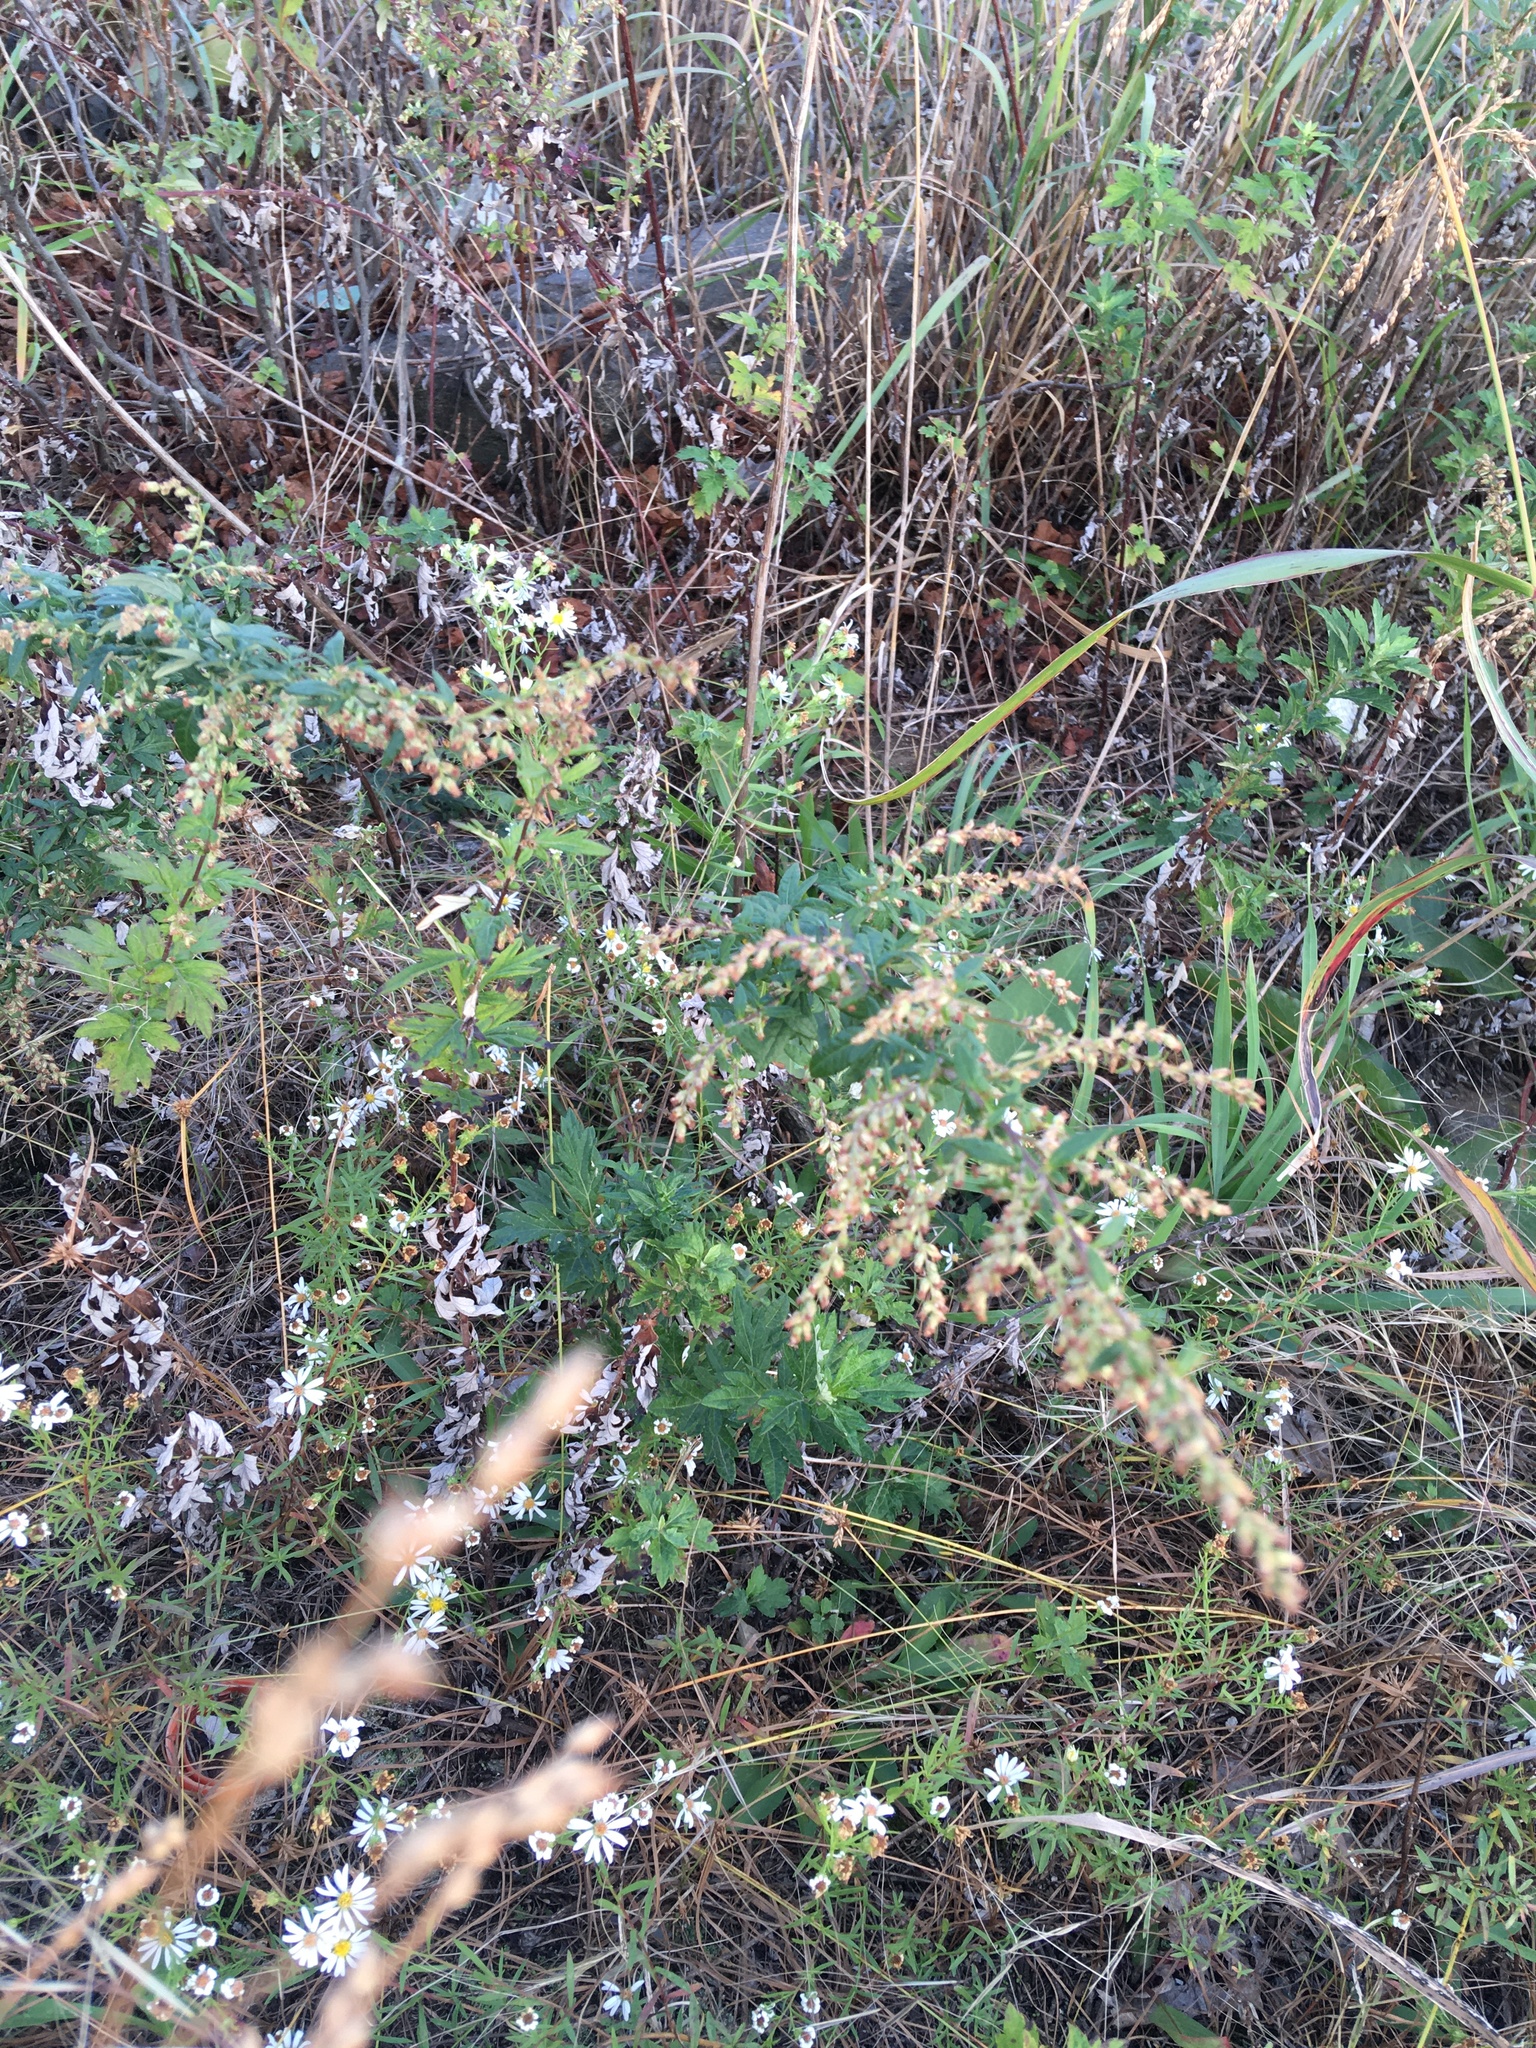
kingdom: Plantae
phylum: Tracheophyta
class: Magnoliopsida
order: Asterales
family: Asteraceae
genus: Artemisia
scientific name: Artemisia vulgaris
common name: Mugwort
